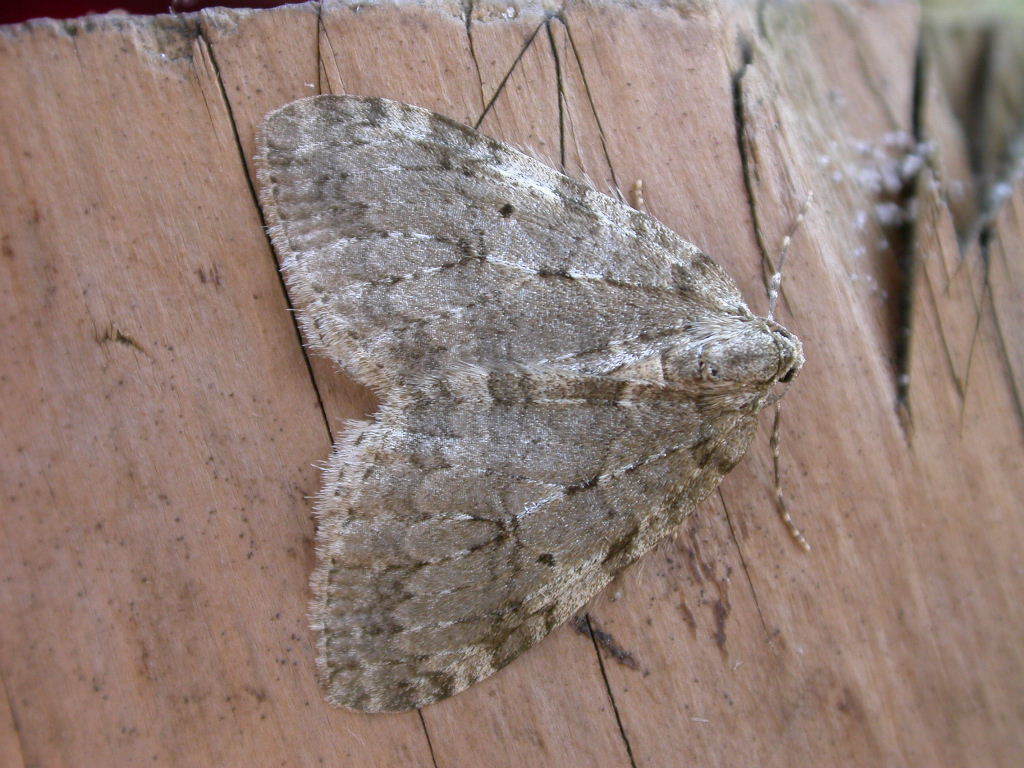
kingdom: Animalia
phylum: Arthropoda
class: Insecta
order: Lepidoptera
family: Geometridae
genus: Epirrita
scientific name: Epirrita dilutata
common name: November moth
